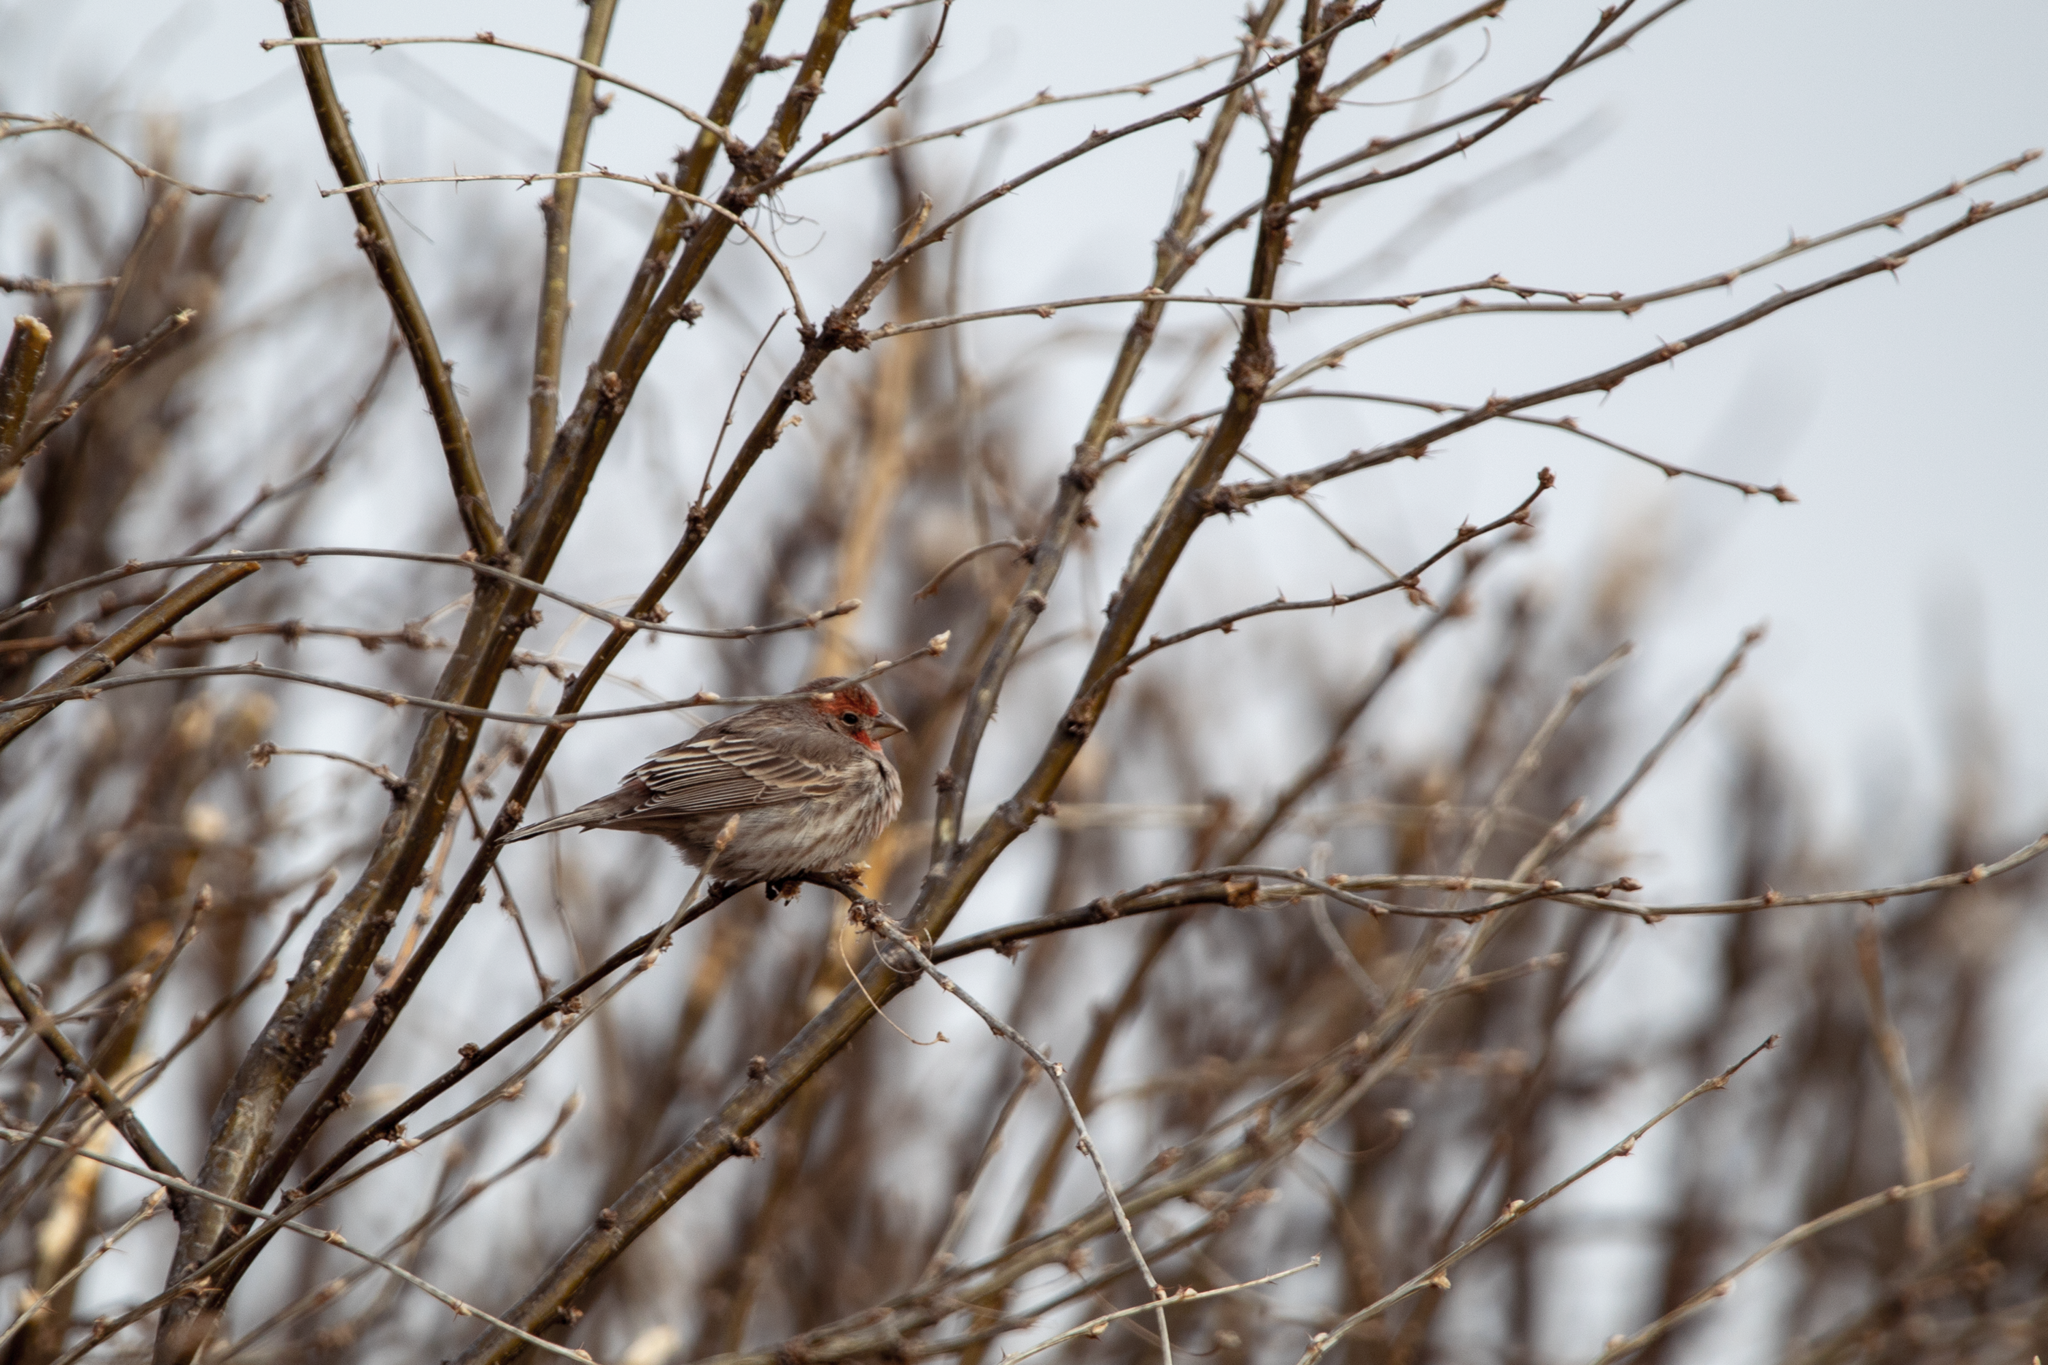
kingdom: Animalia
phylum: Chordata
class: Aves
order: Passeriformes
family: Fringillidae
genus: Haemorhous
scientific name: Haemorhous mexicanus
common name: House finch
